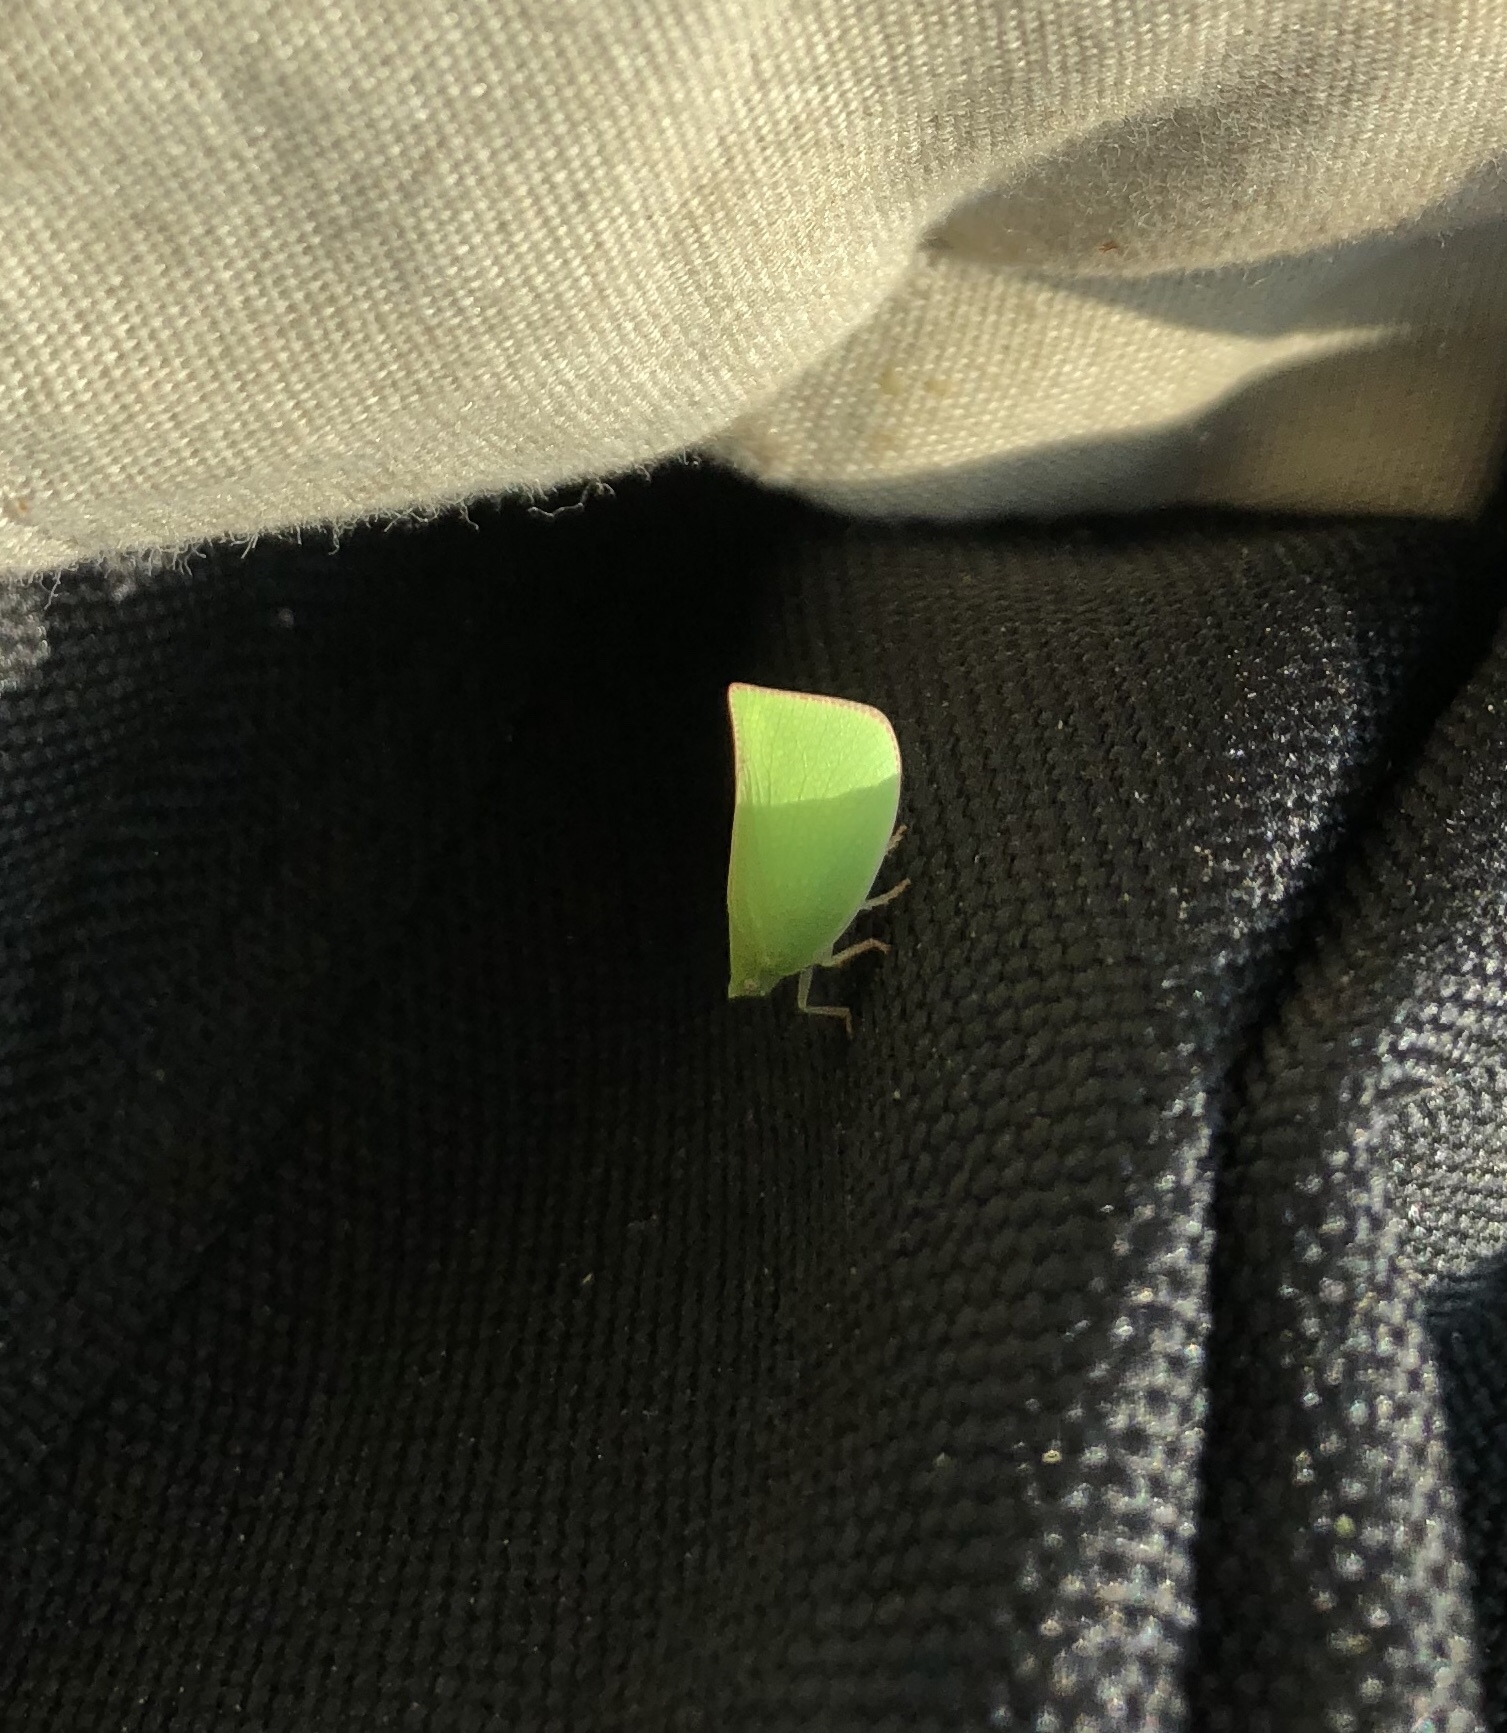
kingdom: Animalia
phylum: Arthropoda
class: Insecta
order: Hemiptera
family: Flatidae
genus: Siphanta
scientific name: Siphanta acuta
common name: Torpedo bug
